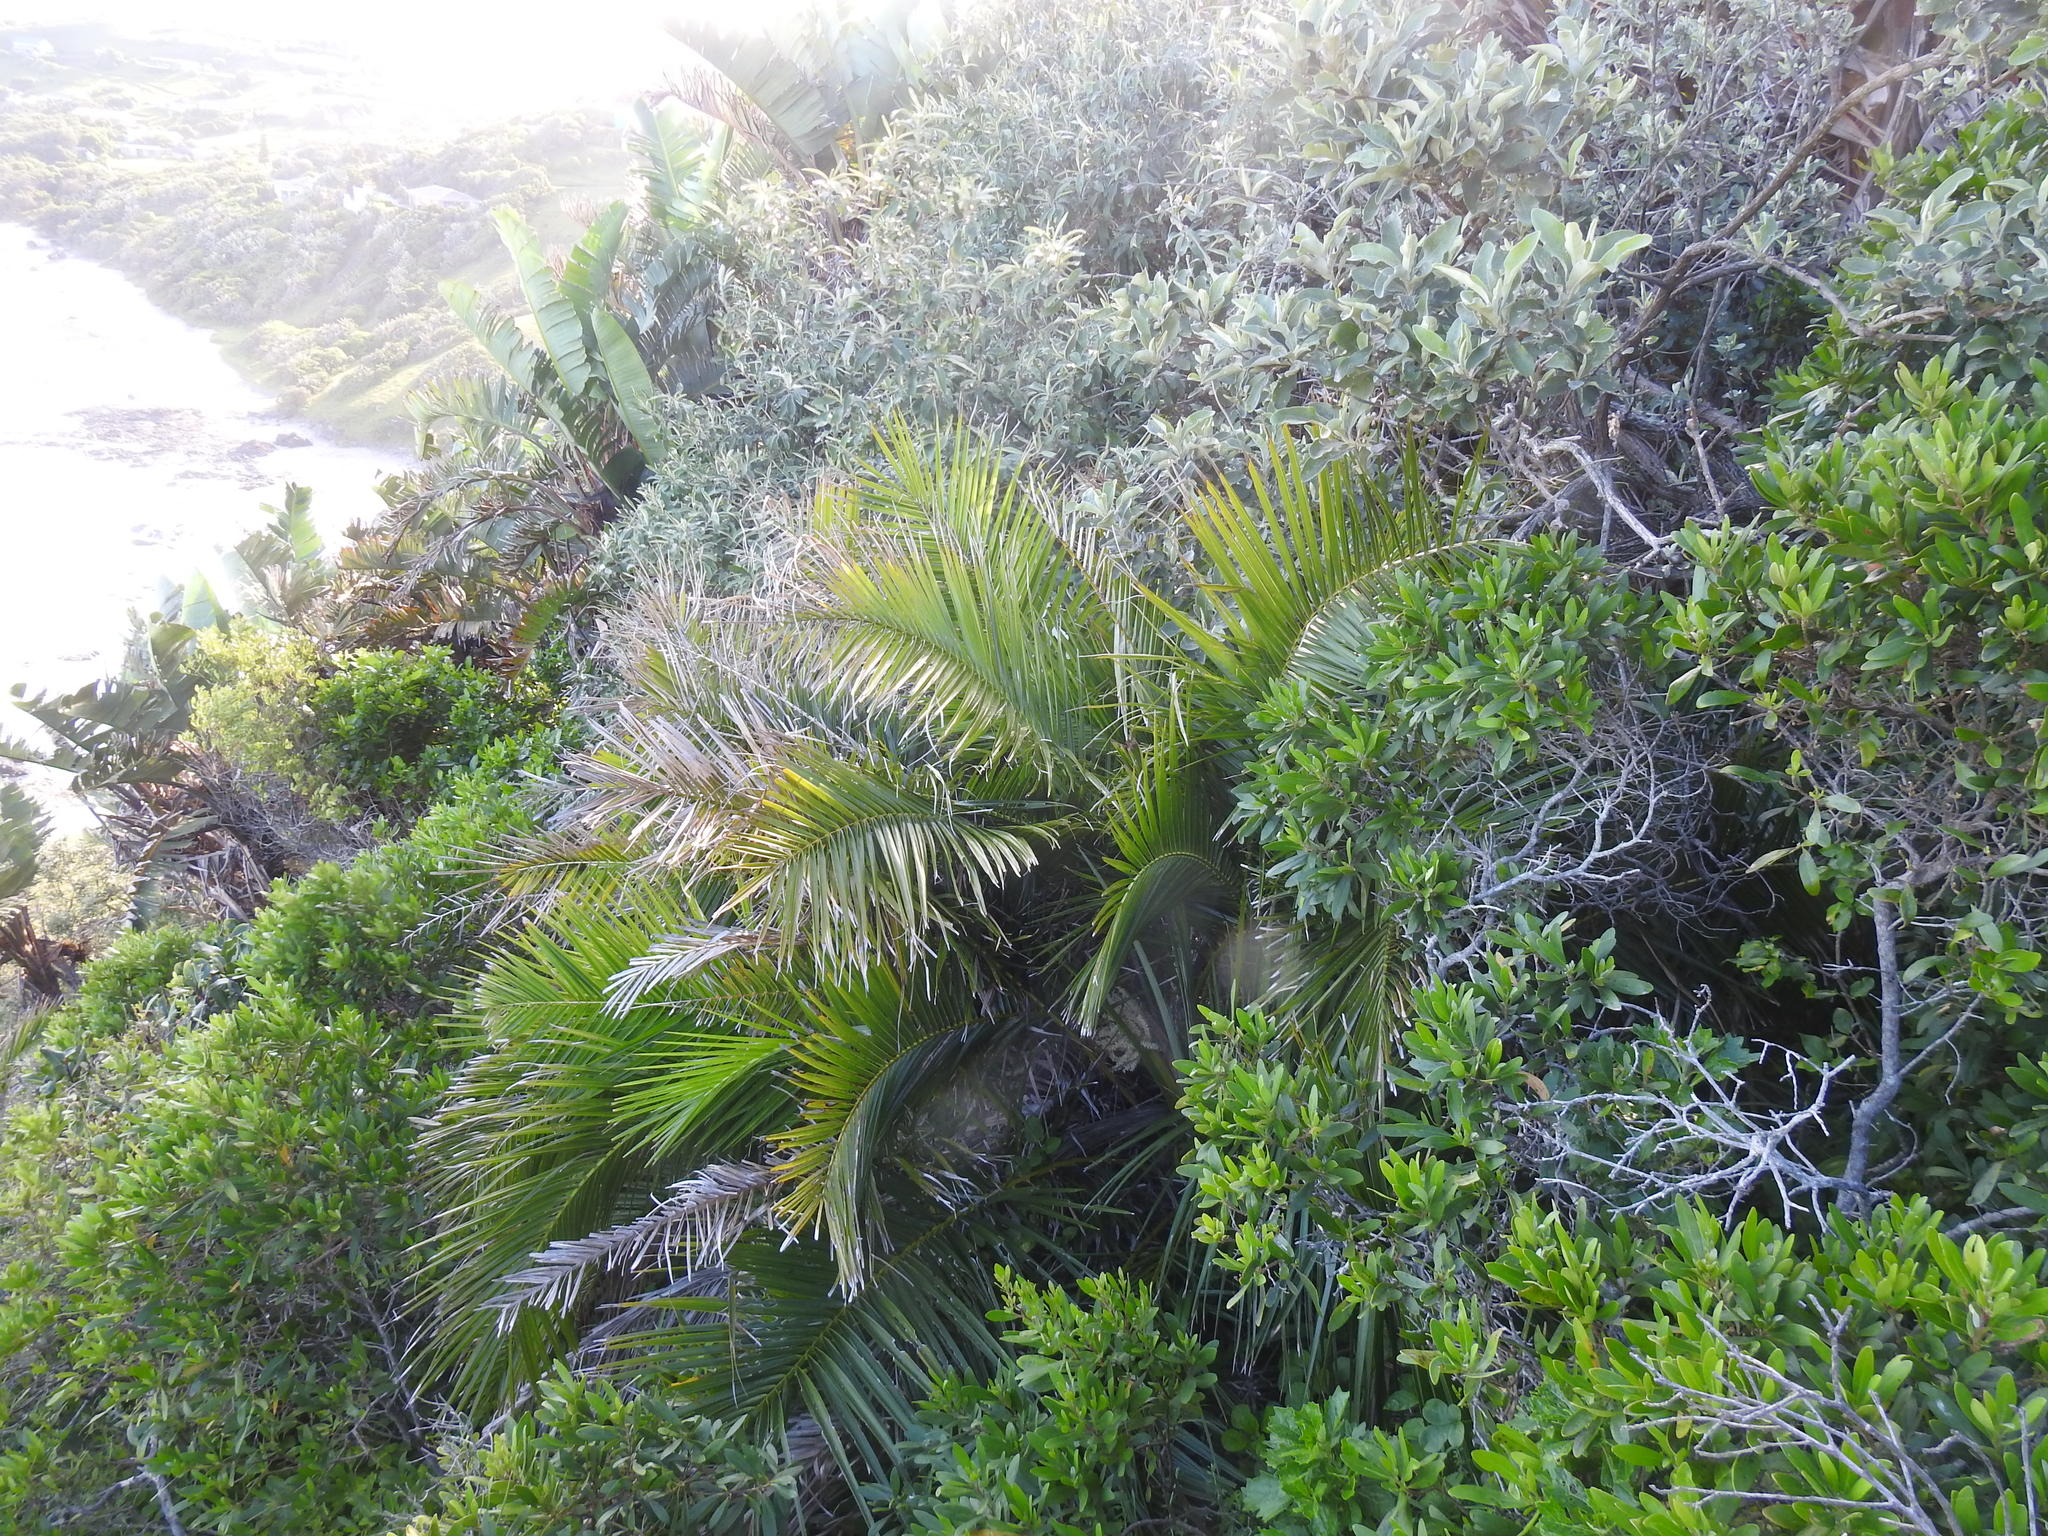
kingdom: Plantae
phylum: Tracheophyta
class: Liliopsida
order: Arecales
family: Arecaceae
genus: Phoenix
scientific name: Phoenix reclinata
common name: Senegal date palm
